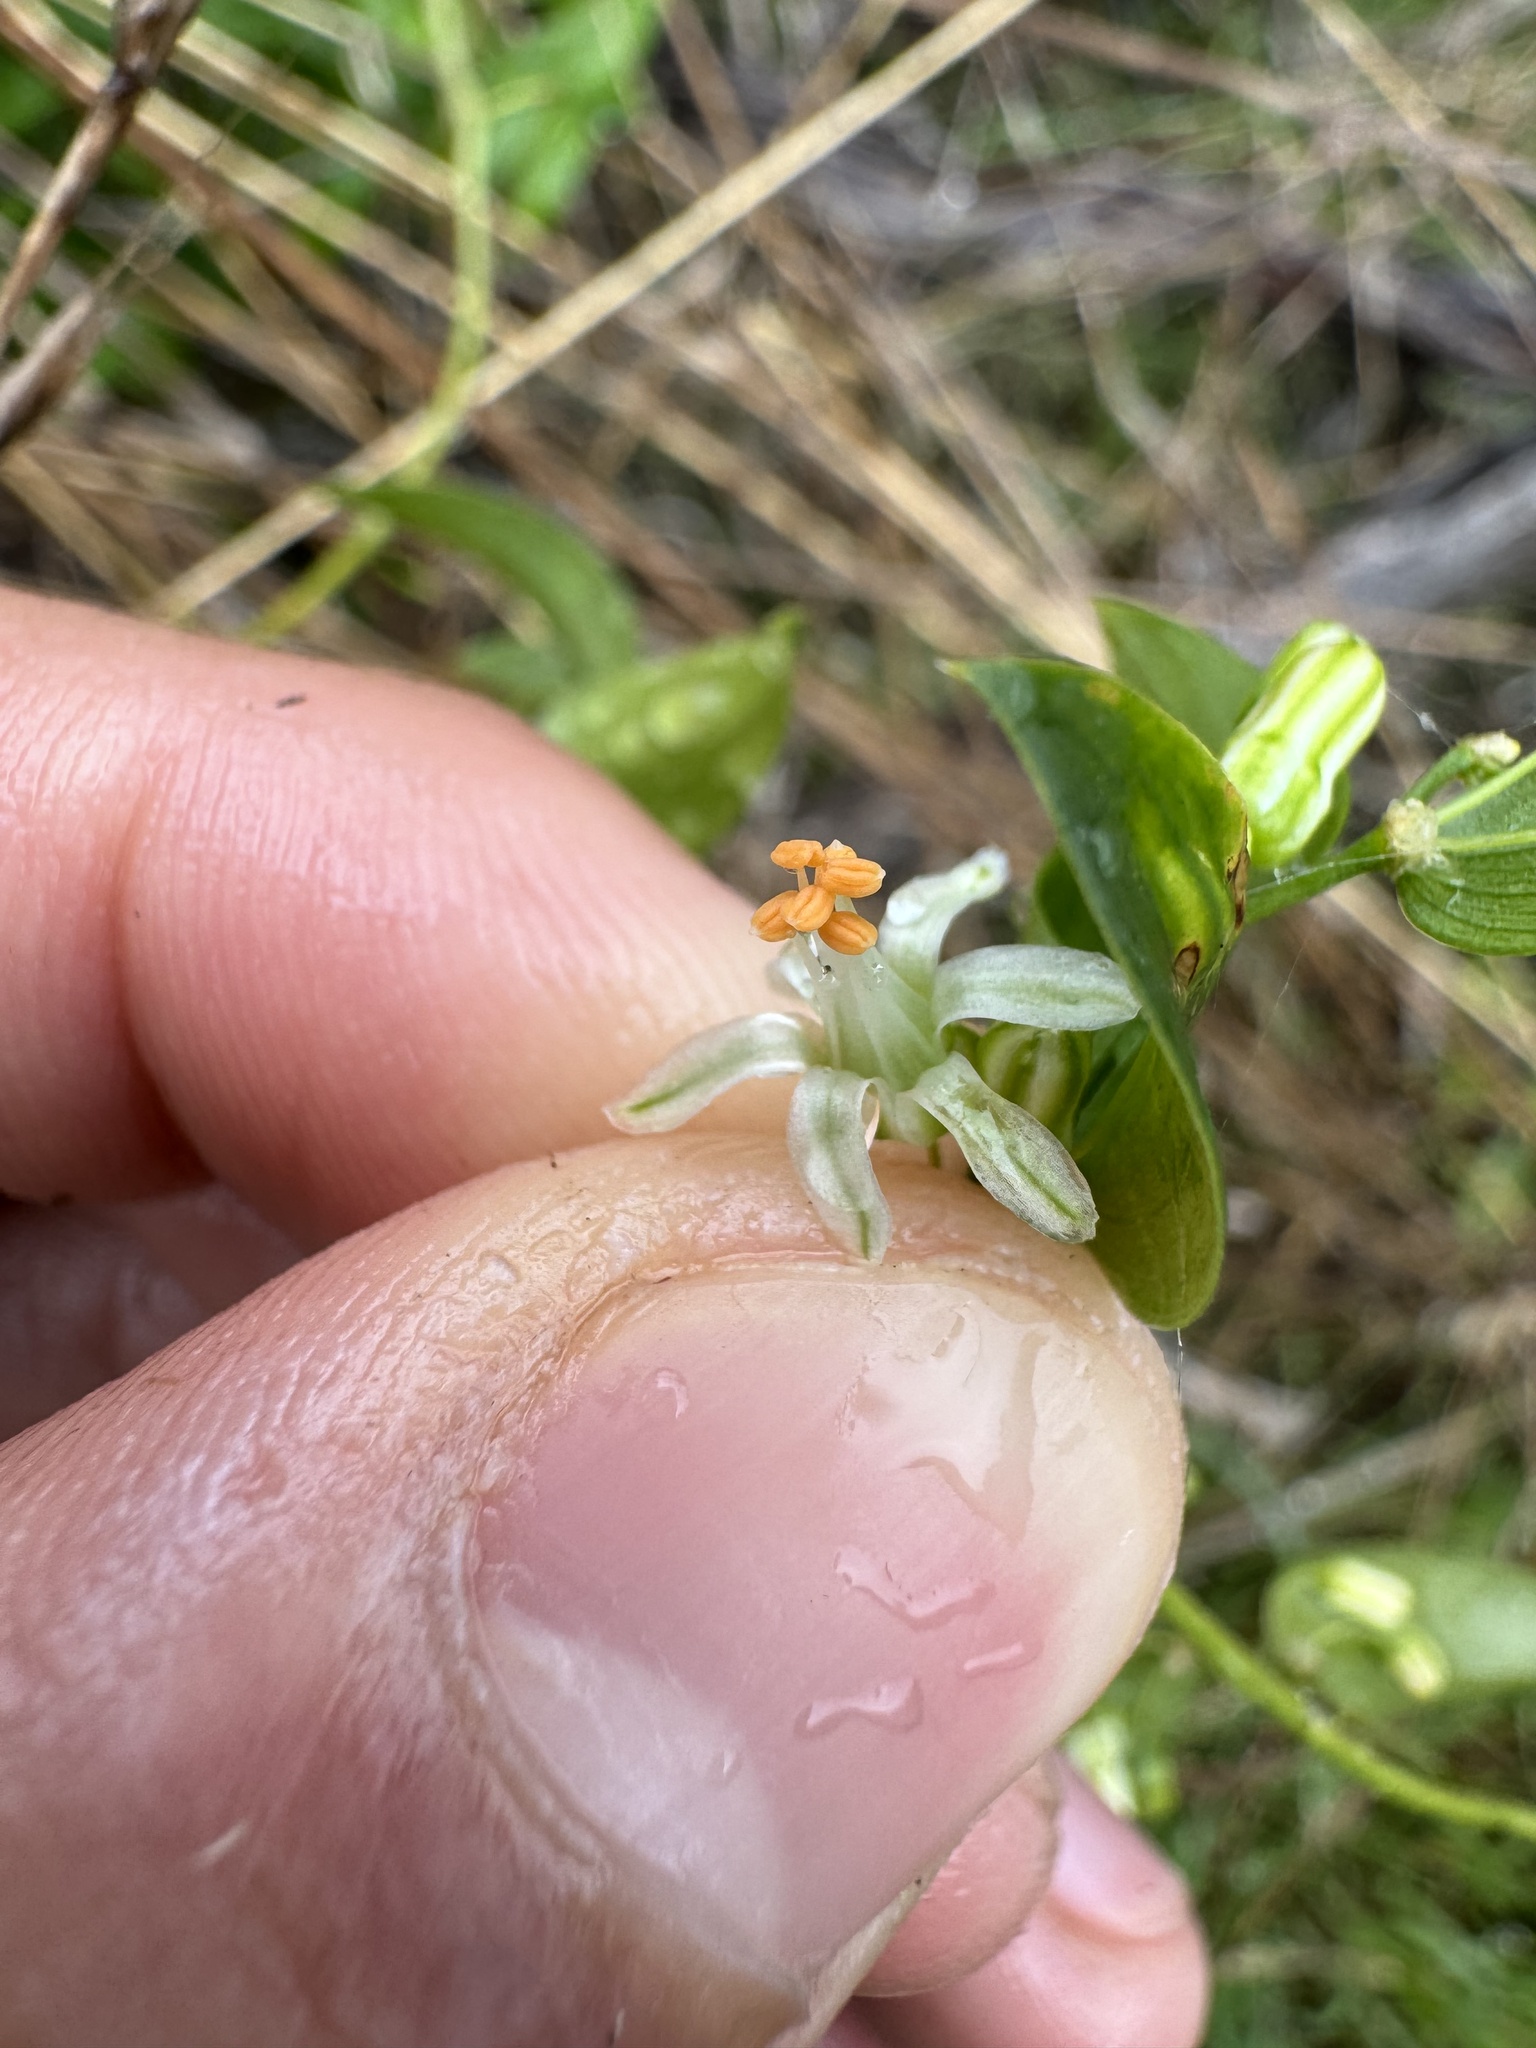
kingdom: Plantae
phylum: Tracheophyta
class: Liliopsida
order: Asparagales
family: Asparagaceae
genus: Asparagus
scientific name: Asparagus asparagoides
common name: African asparagus fern
